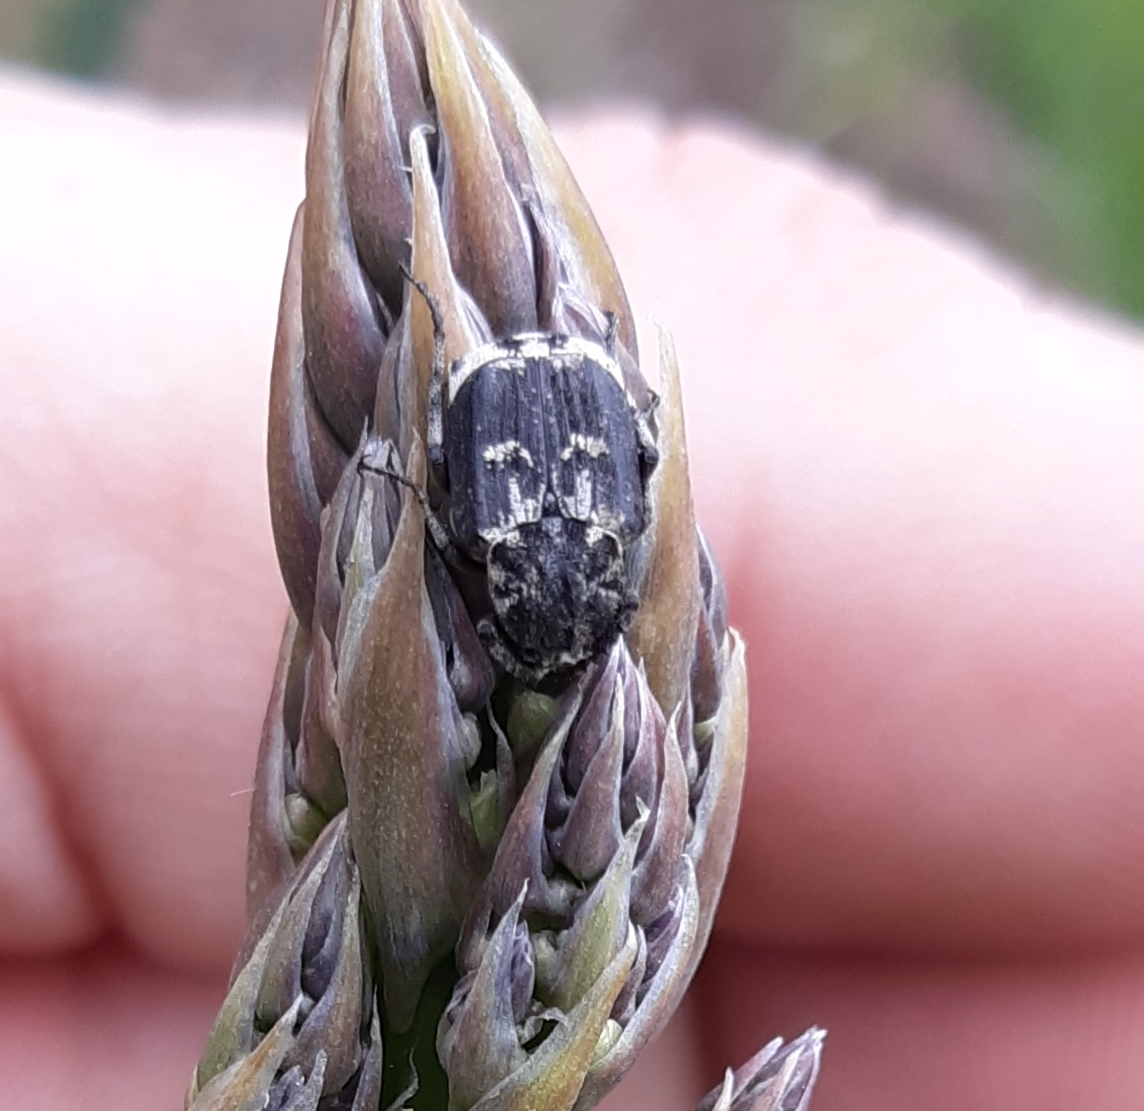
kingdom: Animalia
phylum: Arthropoda
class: Insecta
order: Coleoptera
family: Scarabaeidae
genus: Valgus
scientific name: Valgus hemipterus
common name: Bug flower chafer
